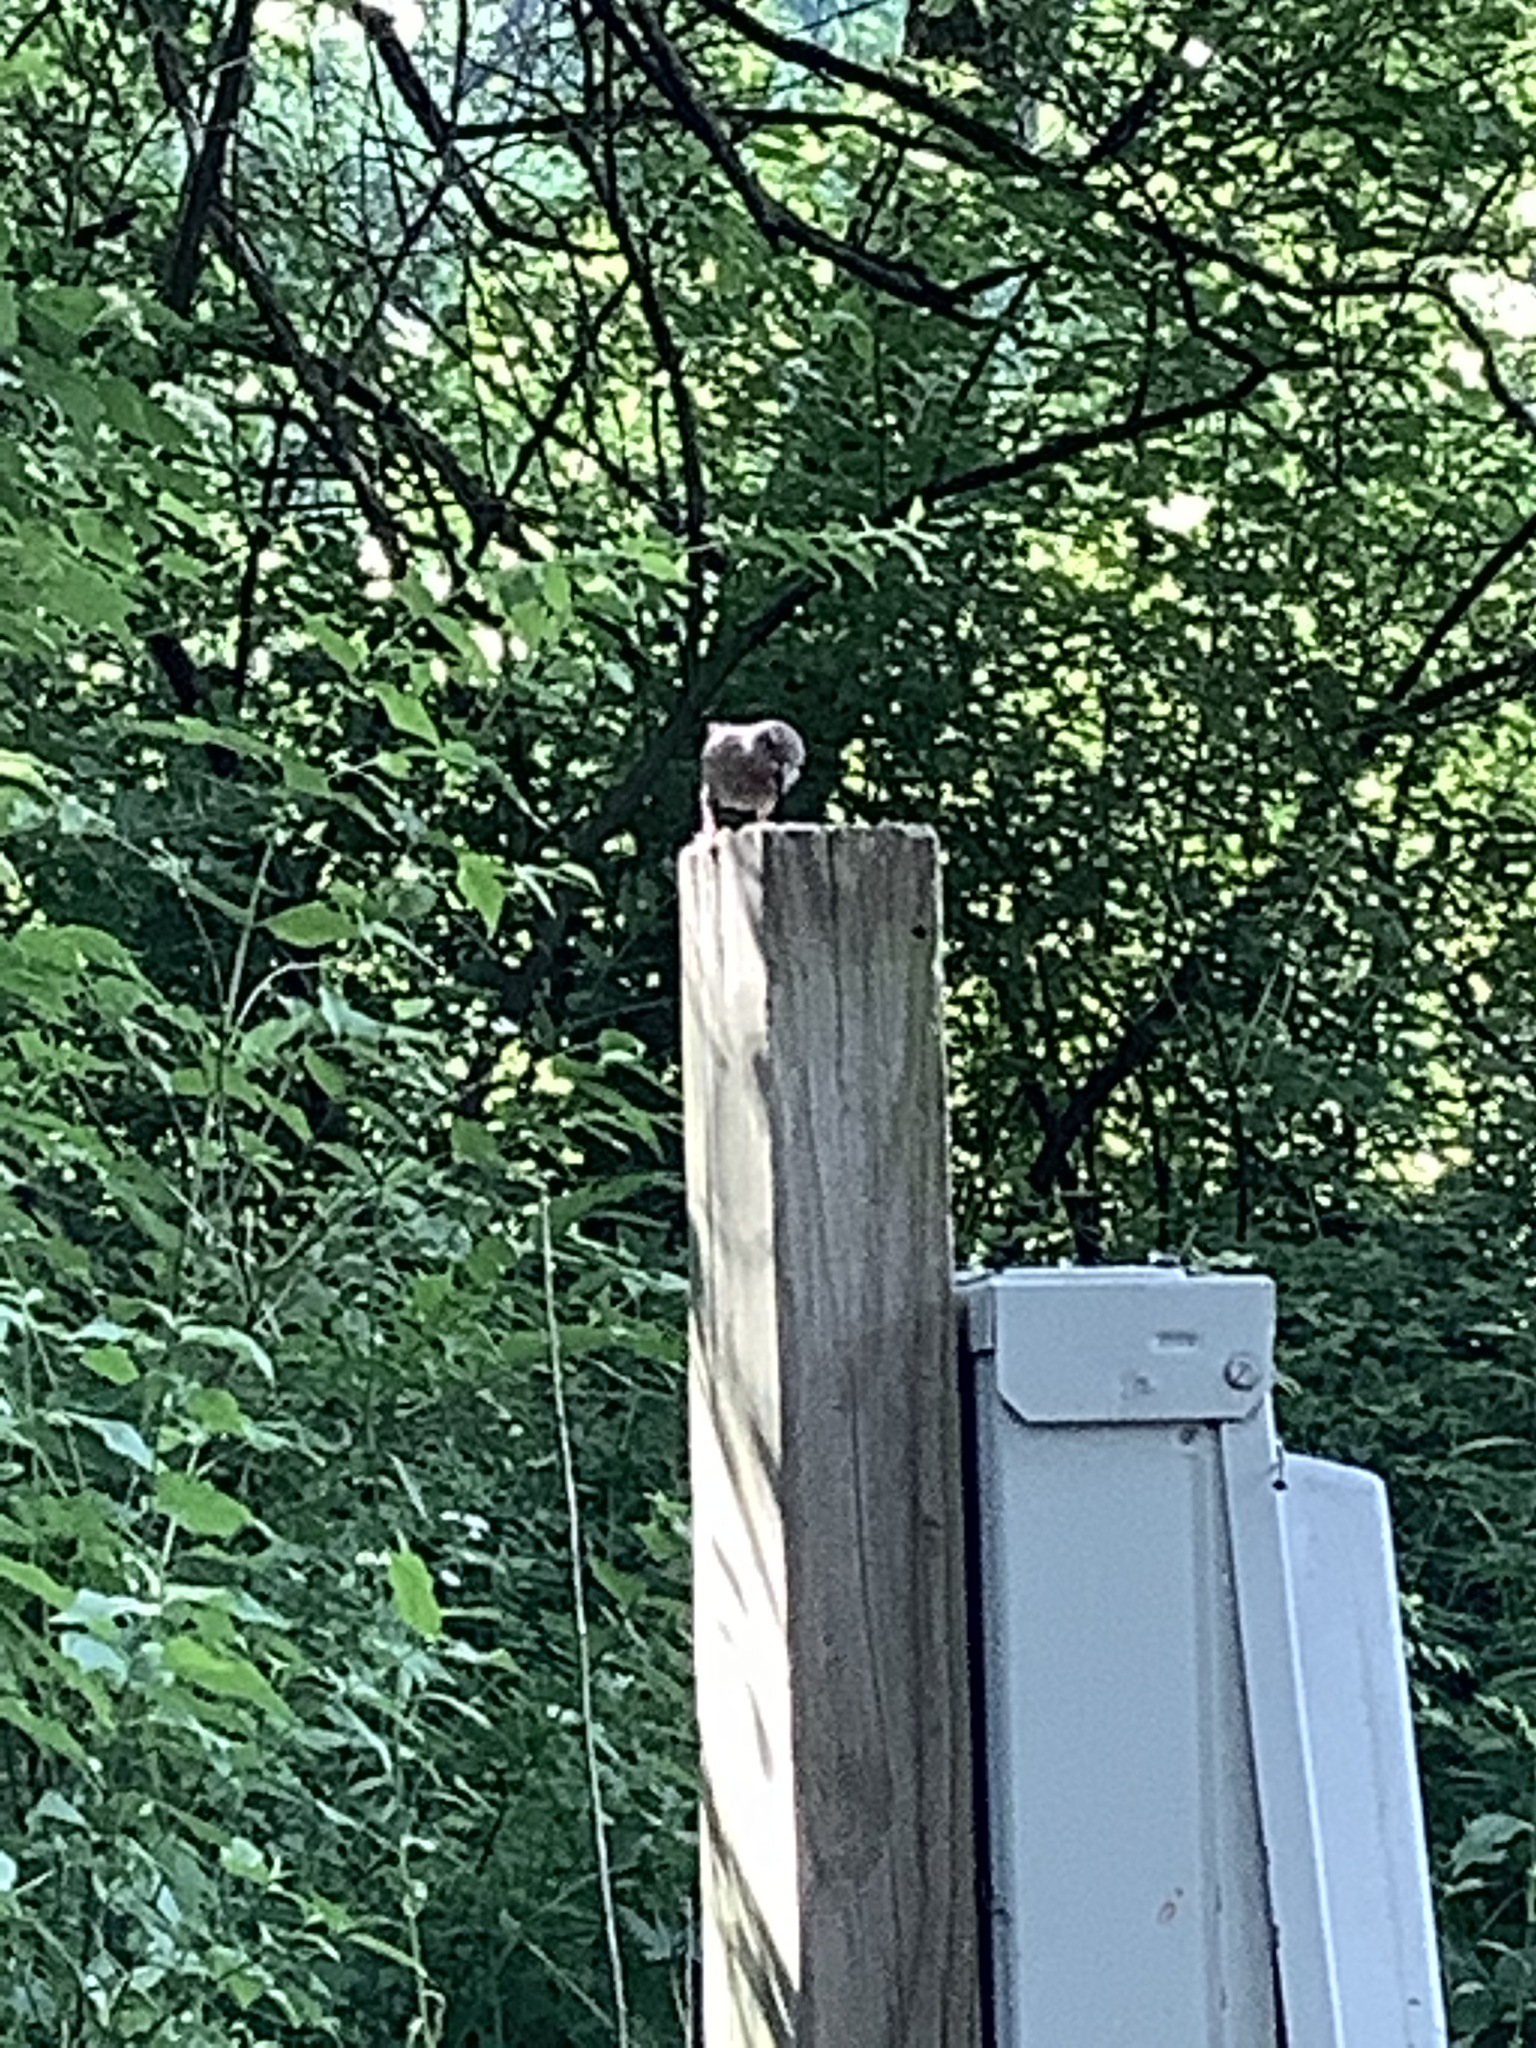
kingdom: Animalia
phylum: Chordata
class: Aves
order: Passeriformes
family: Troglodytidae
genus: Troglodytes
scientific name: Troglodytes aedon
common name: House wren
